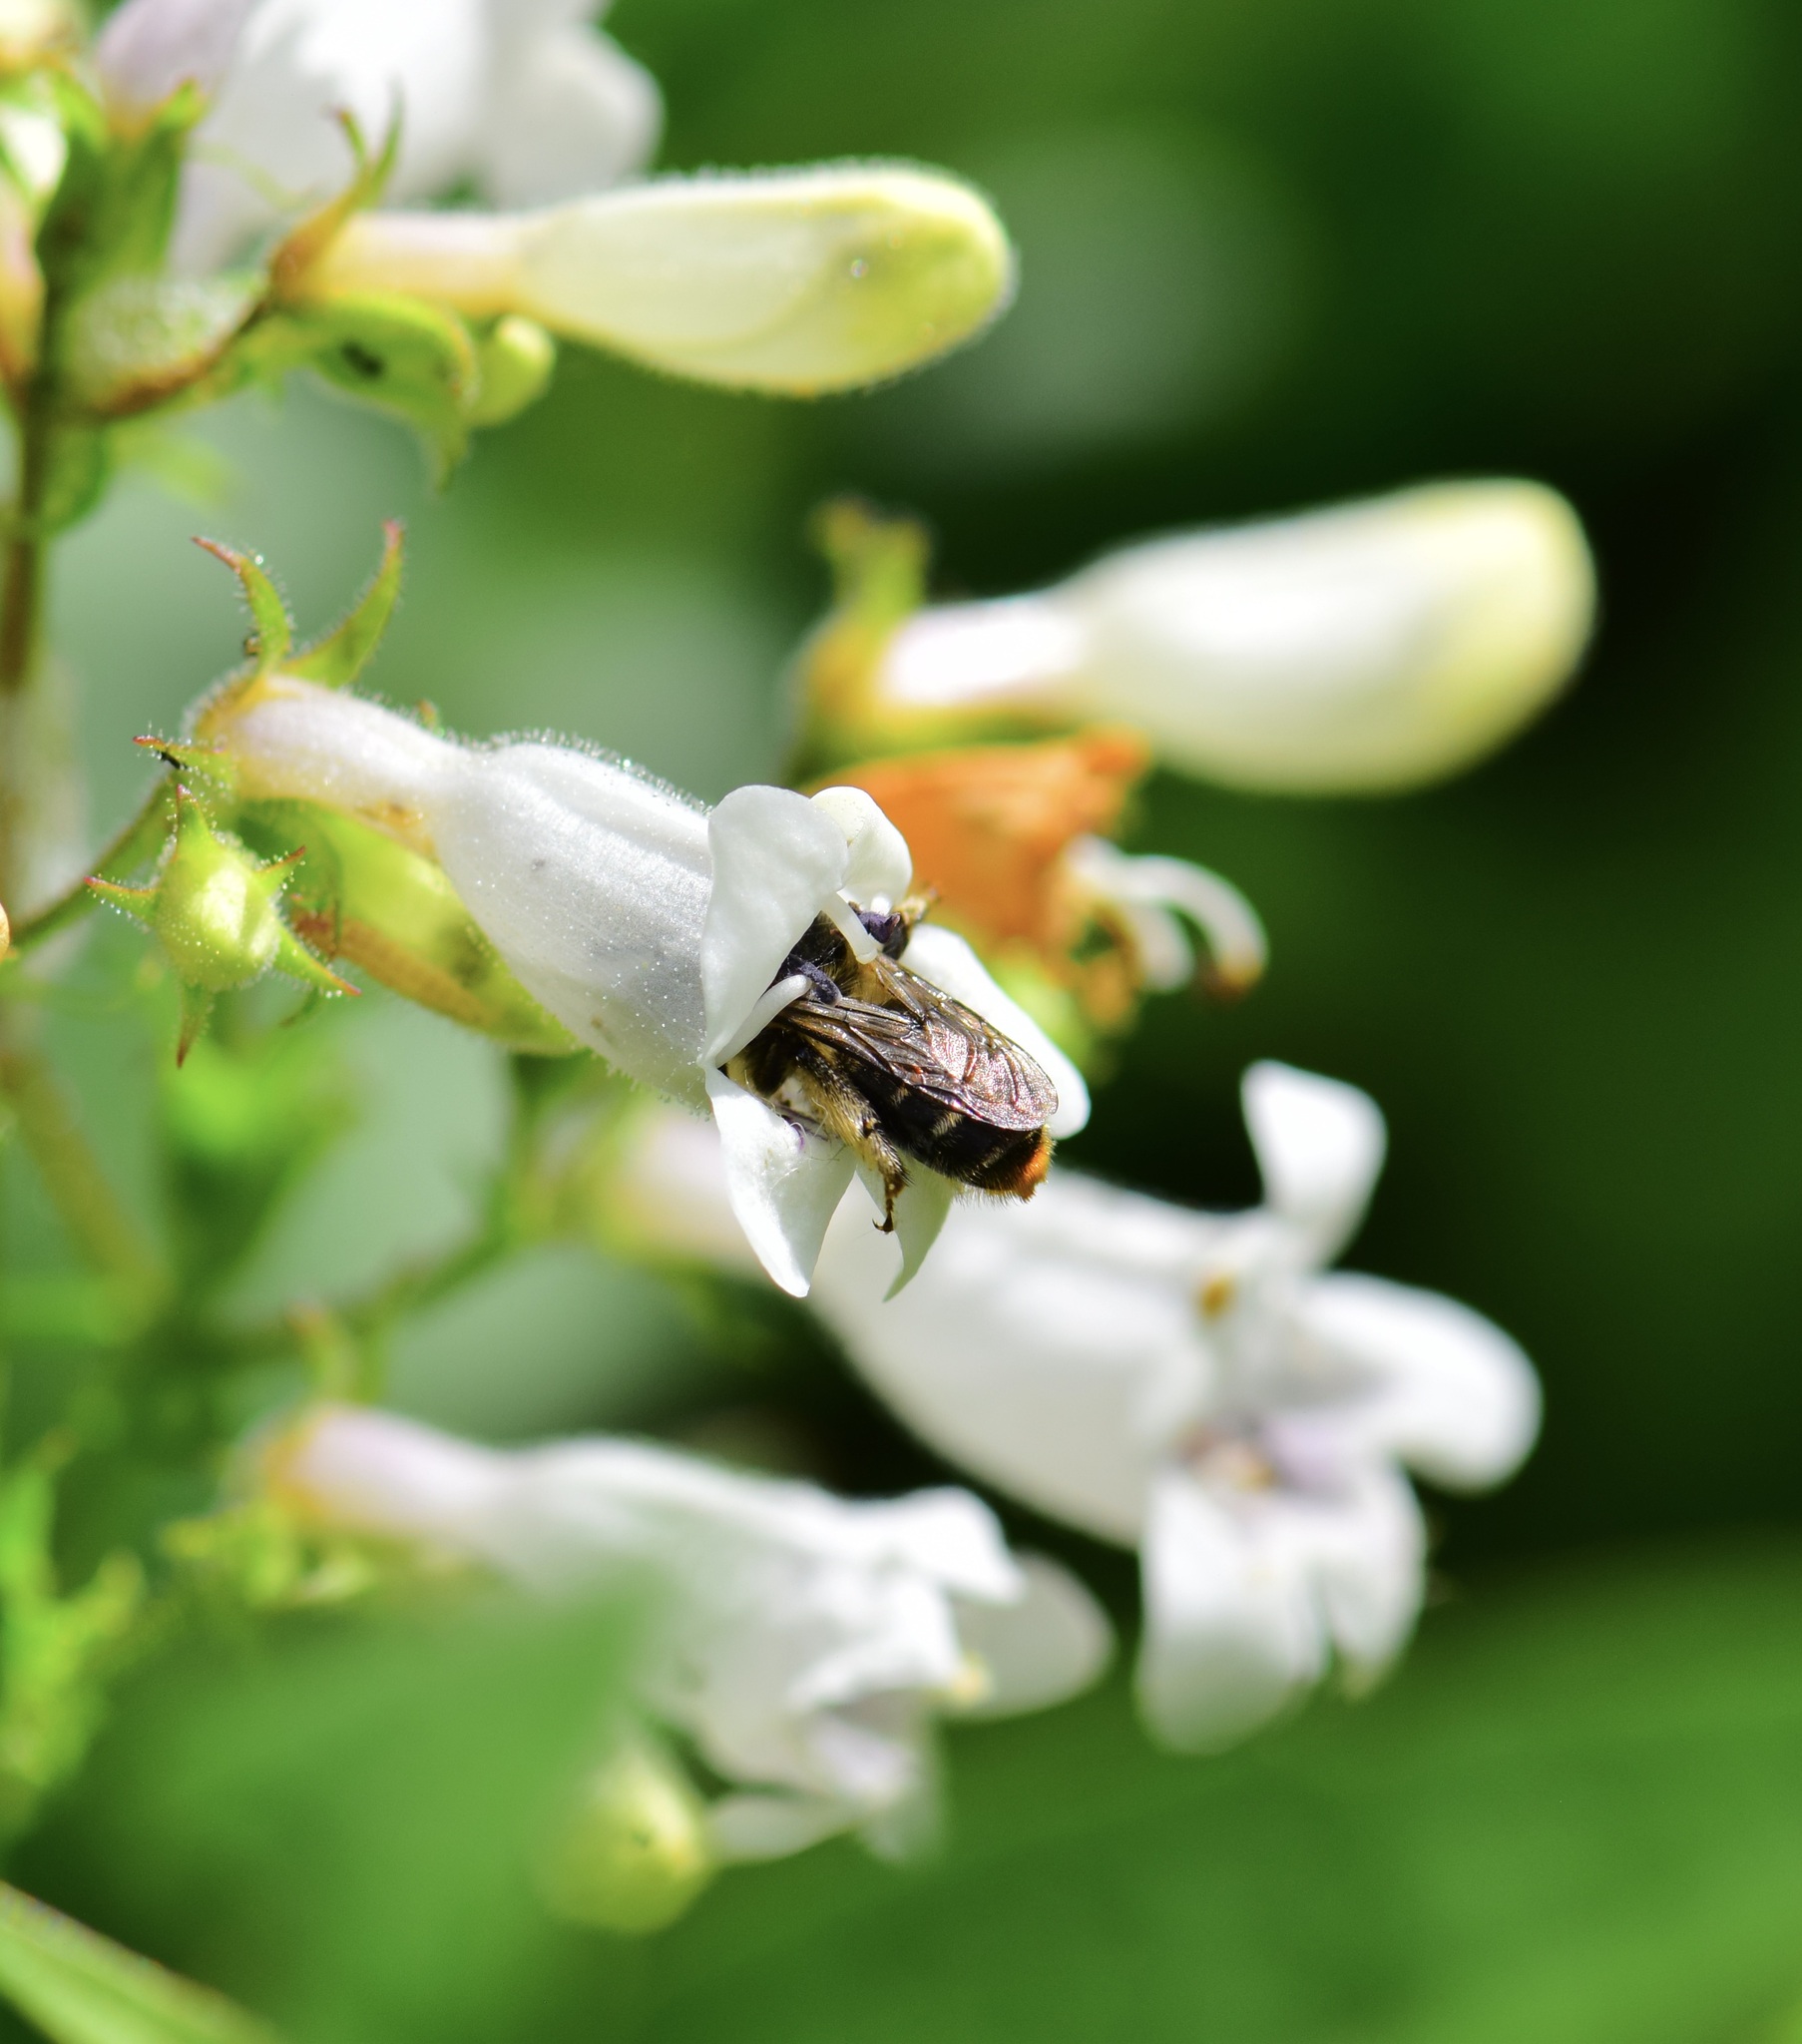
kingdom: Animalia
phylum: Arthropoda
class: Insecta
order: Hymenoptera
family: Apidae
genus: Anthophora
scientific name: Anthophora terminalis
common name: Orange-tipped wood-digger bee
